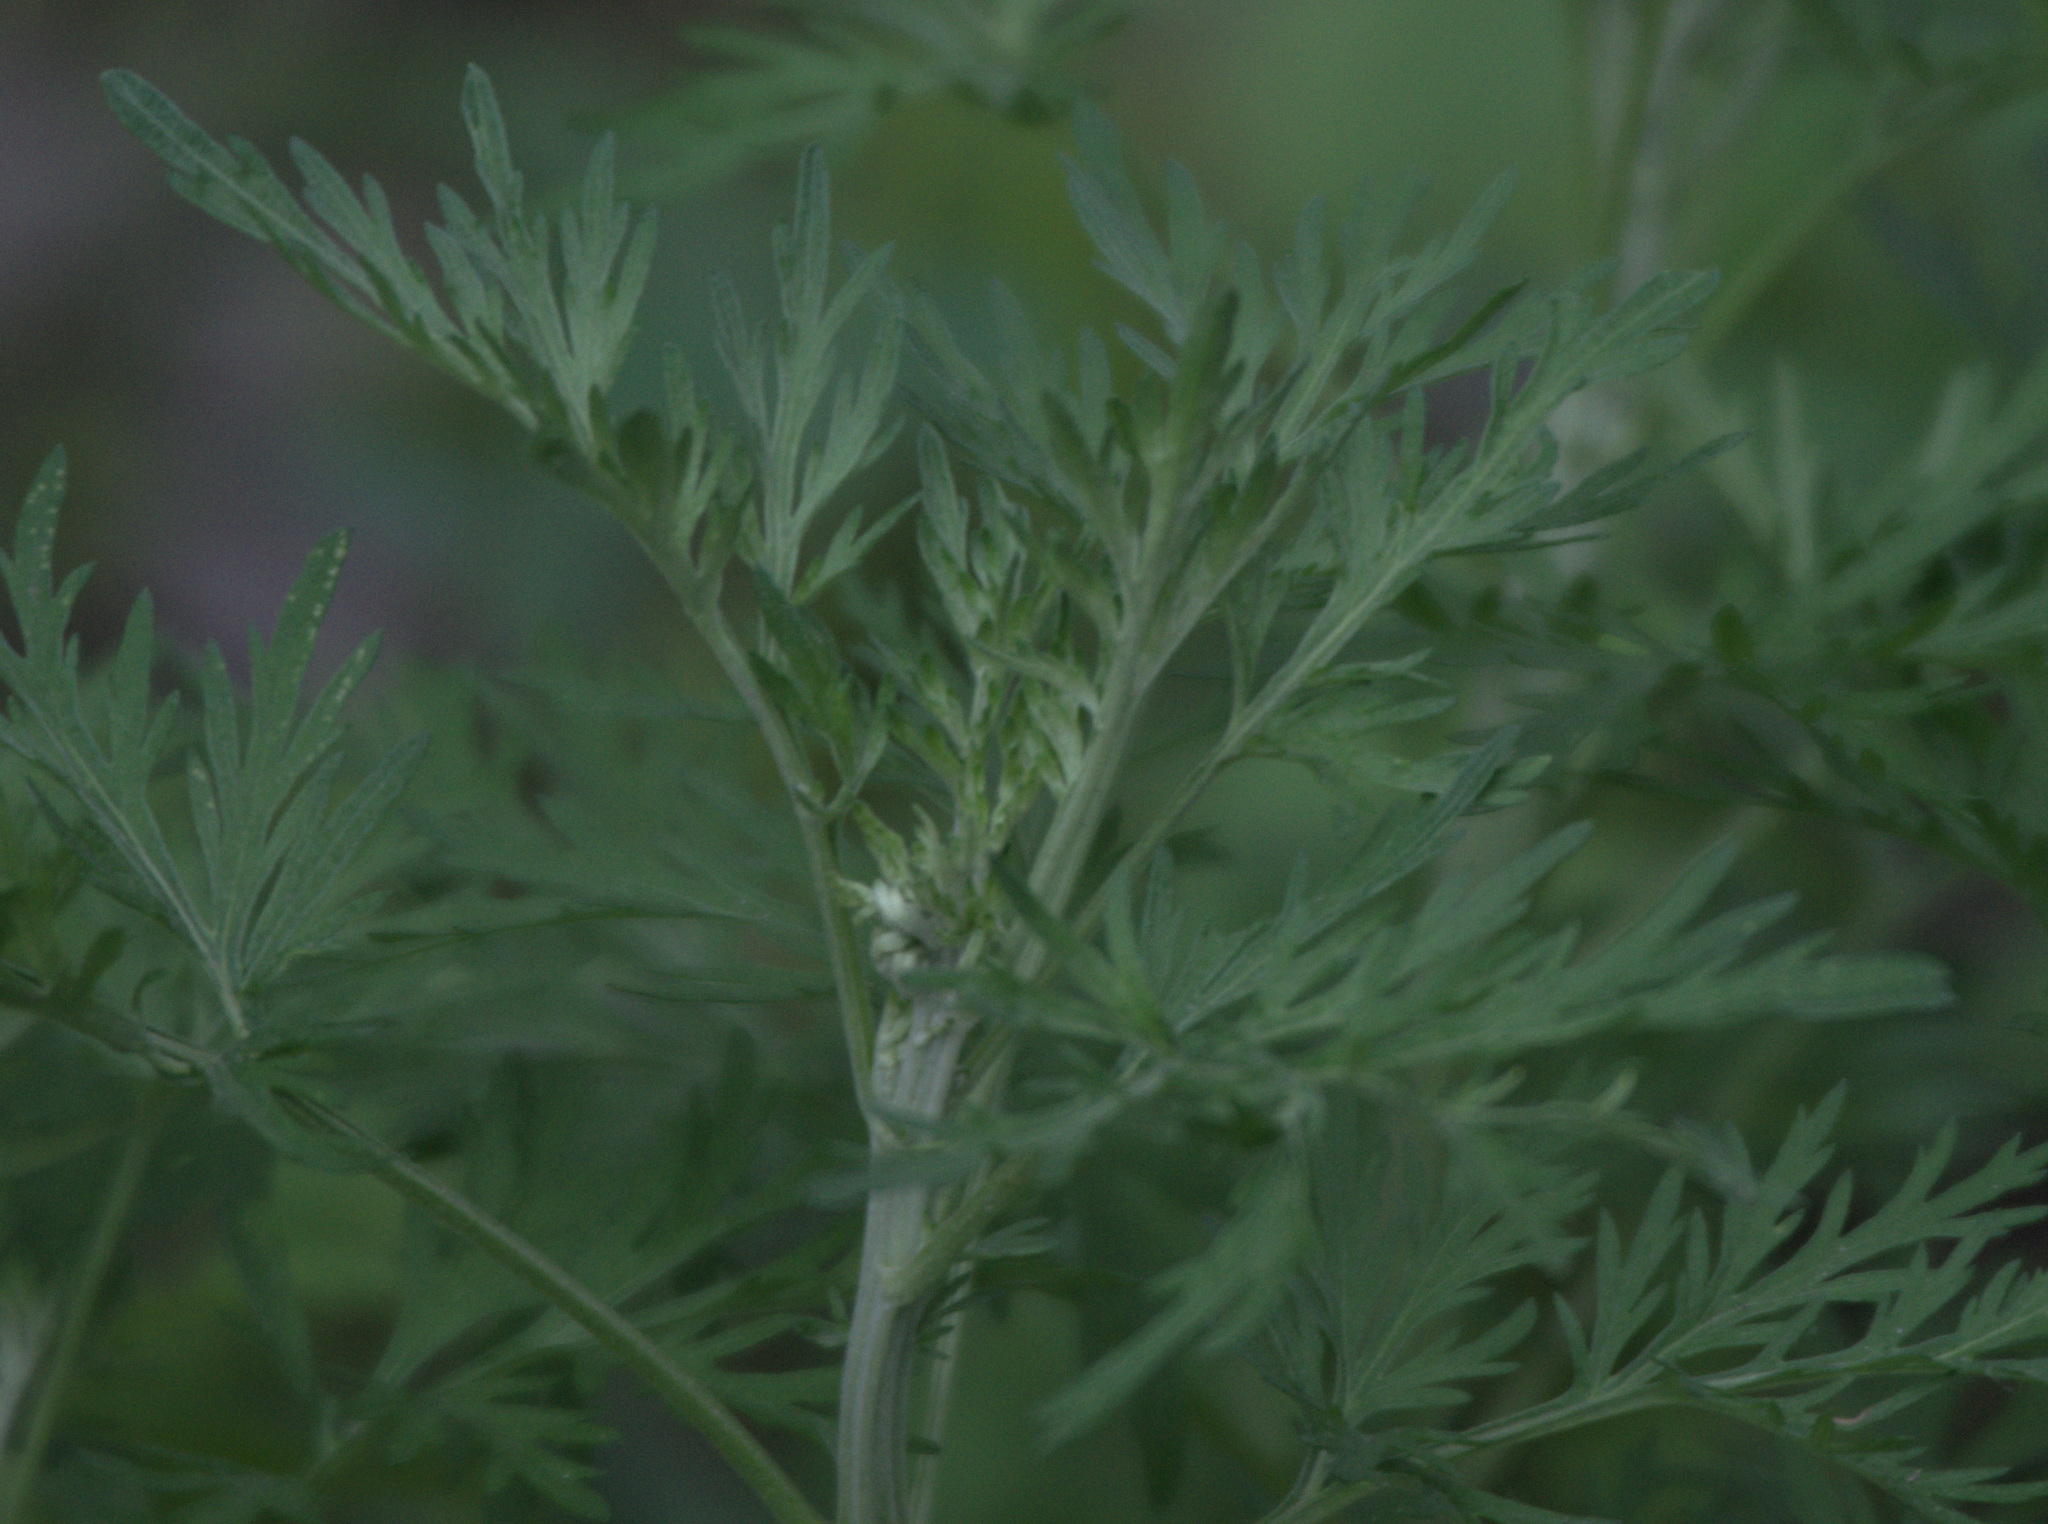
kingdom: Plantae
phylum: Tracheophyta
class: Magnoliopsida
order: Asterales
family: Asteraceae
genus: Artemisia
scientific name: Artemisia sieversiana
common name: Sieversian wormwood
